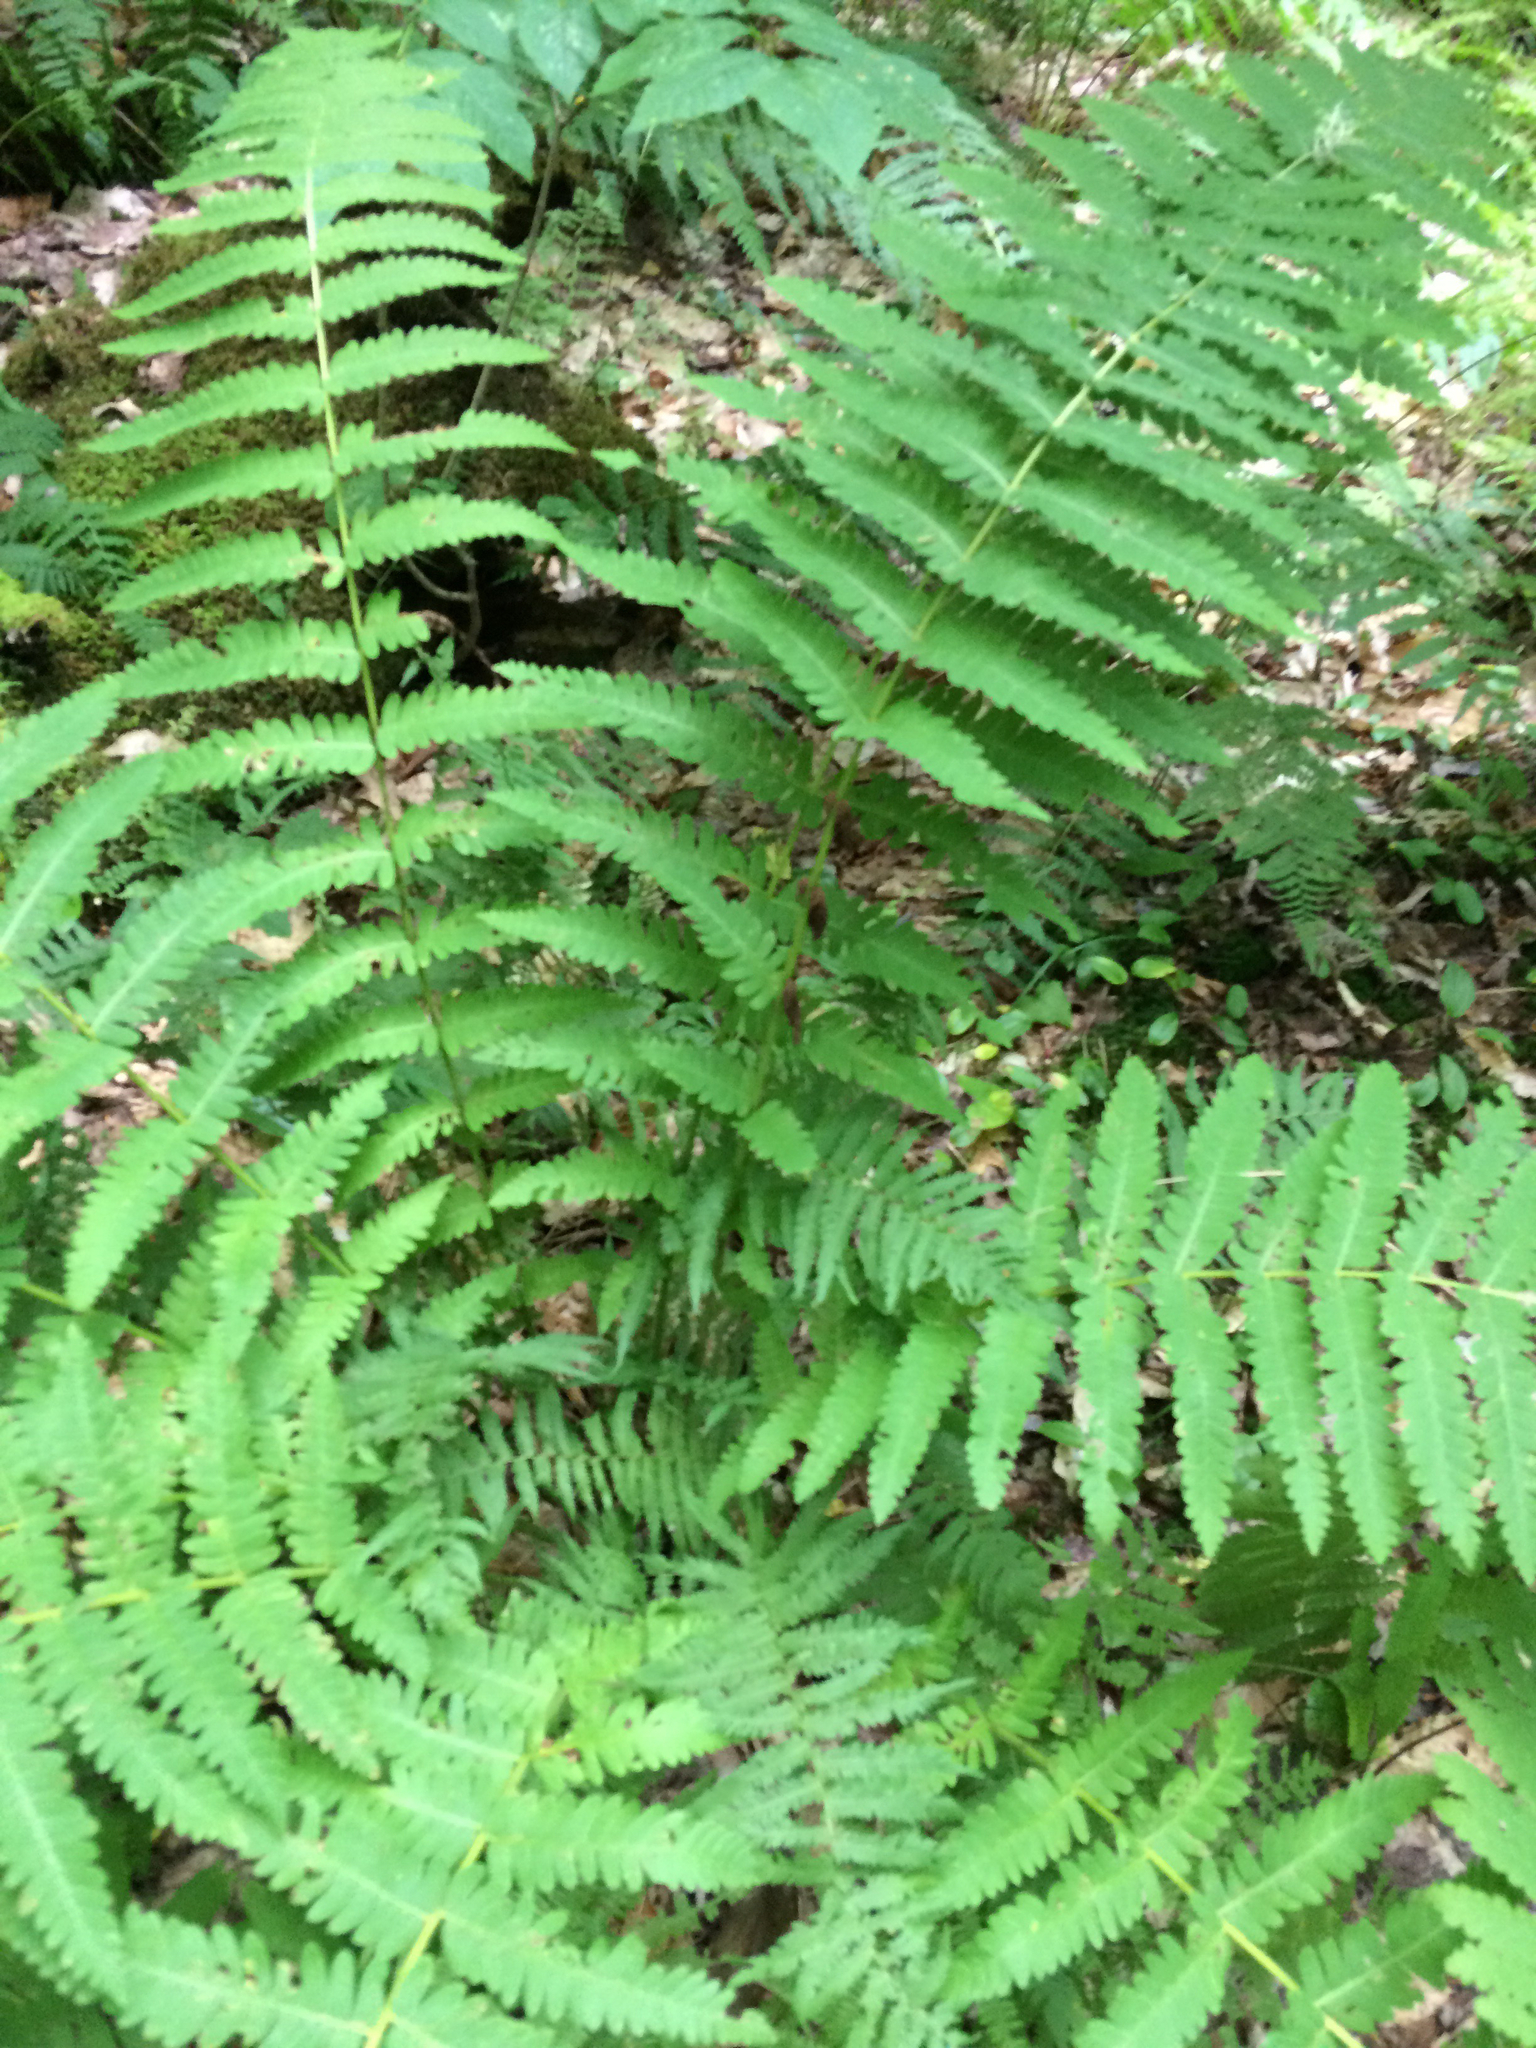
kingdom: Plantae
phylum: Tracheophyta
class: Polypodiopsida
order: Osmundales
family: Osmundaceae
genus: Claytosmunda
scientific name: Claytosmunda claytoniana
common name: Clayton's fern
